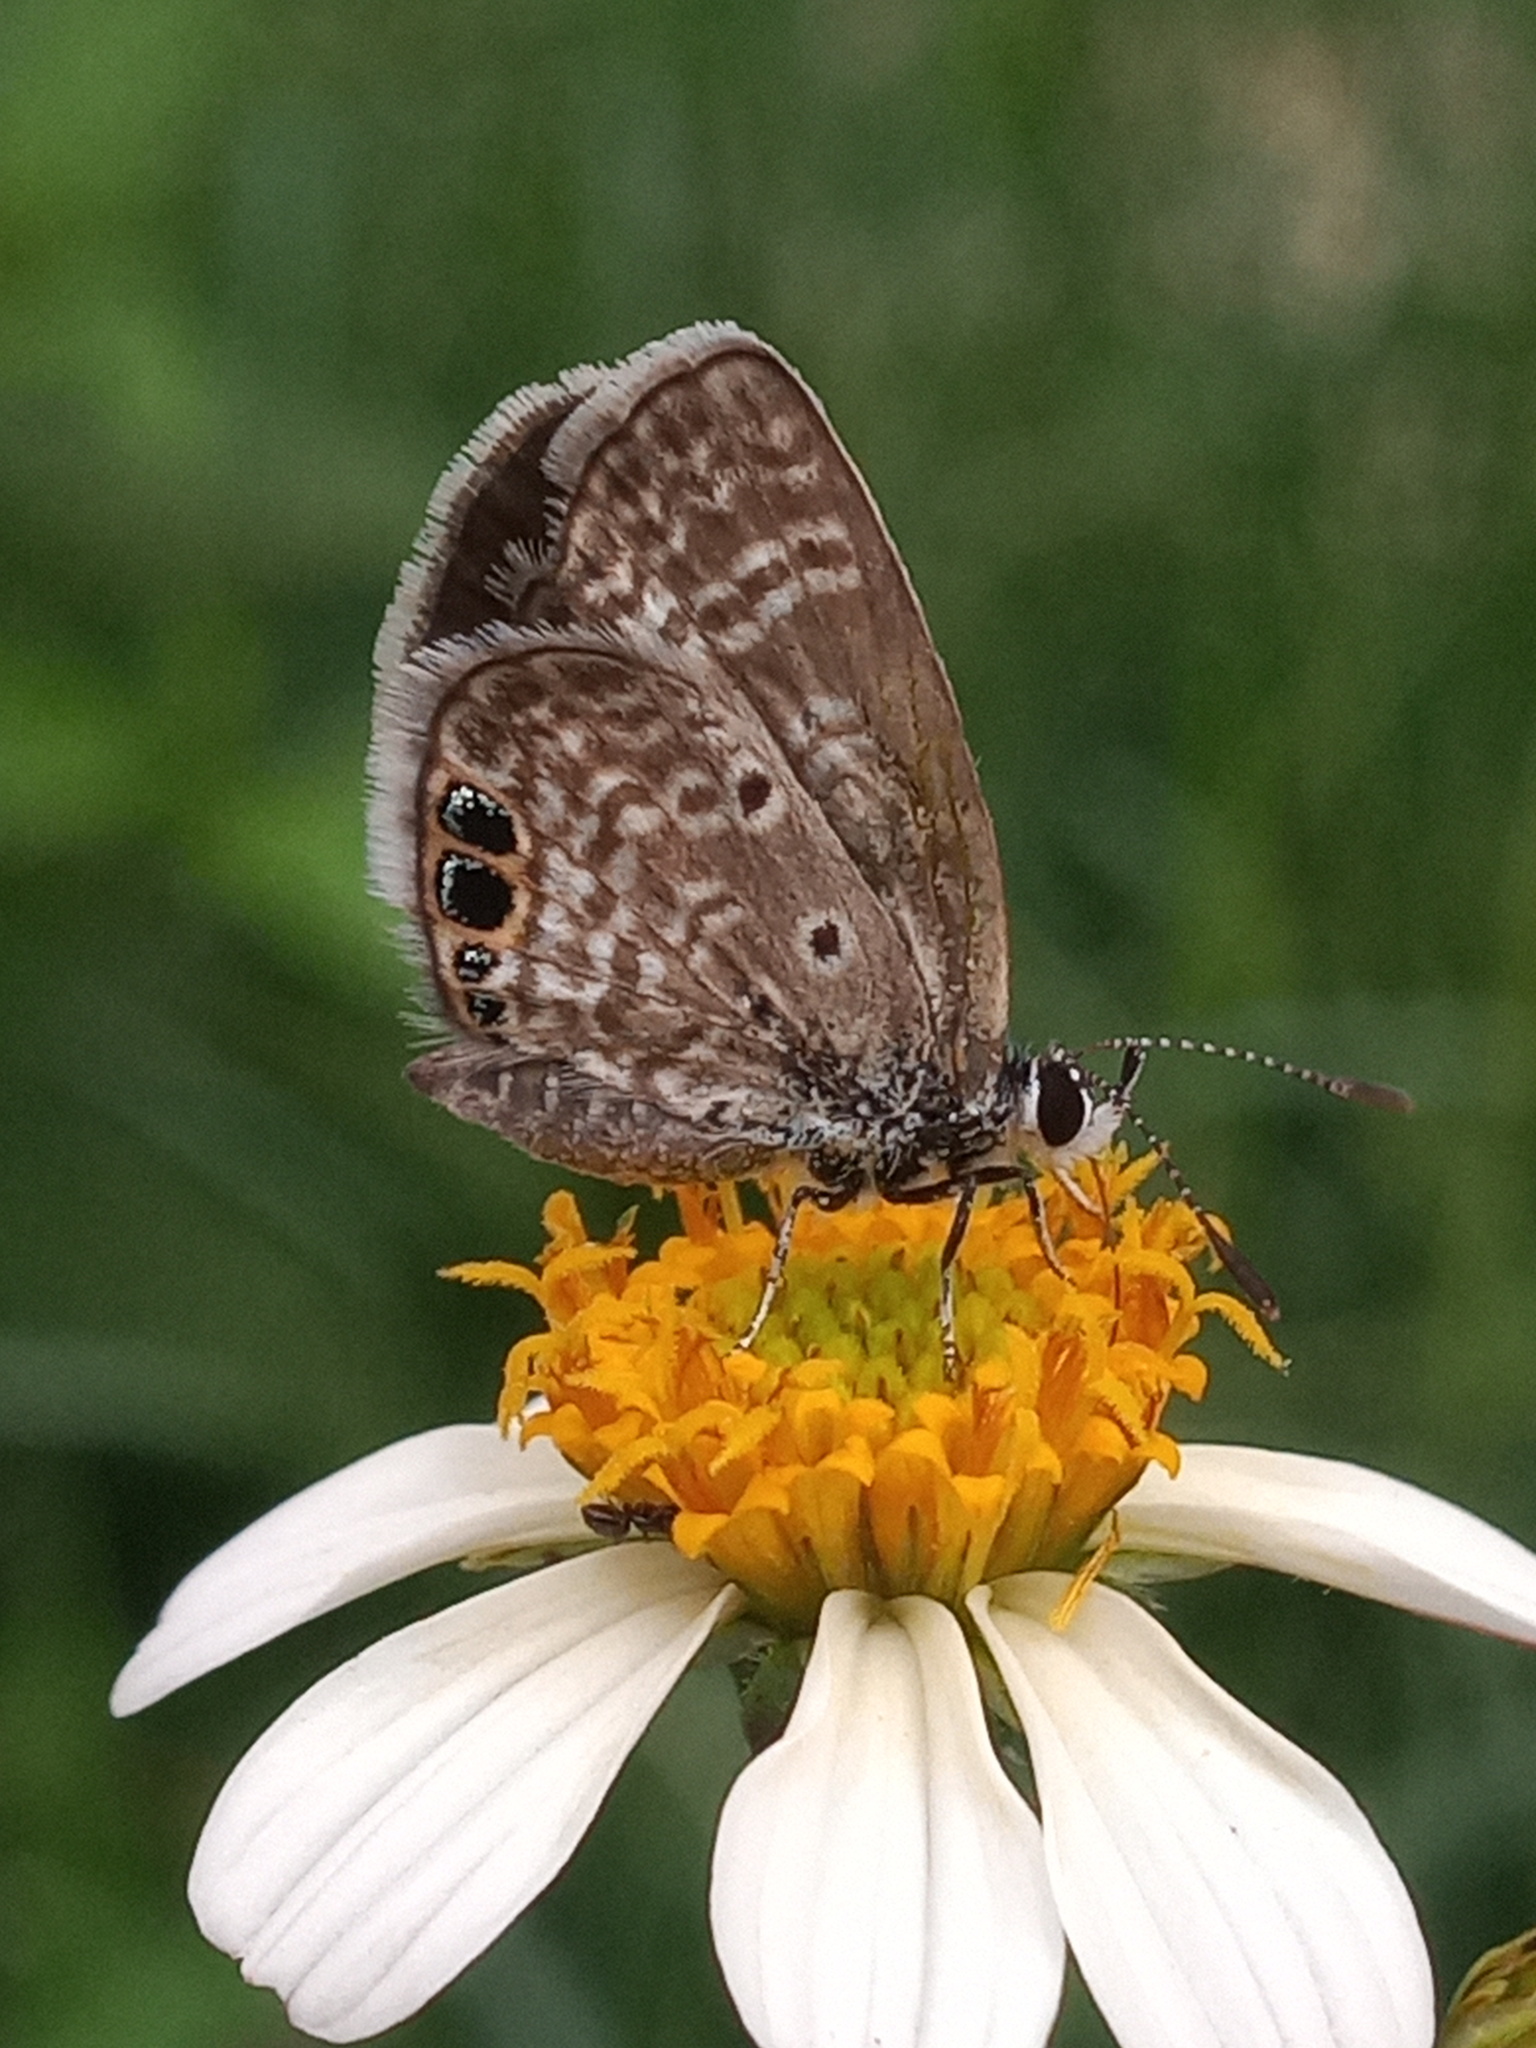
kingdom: Animalia
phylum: Arthropoda
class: Insecta
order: Lepidoptera
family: Lycaenidae
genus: Hemiargus
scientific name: Hemiargus ceraunus
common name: Ceraunus blue
